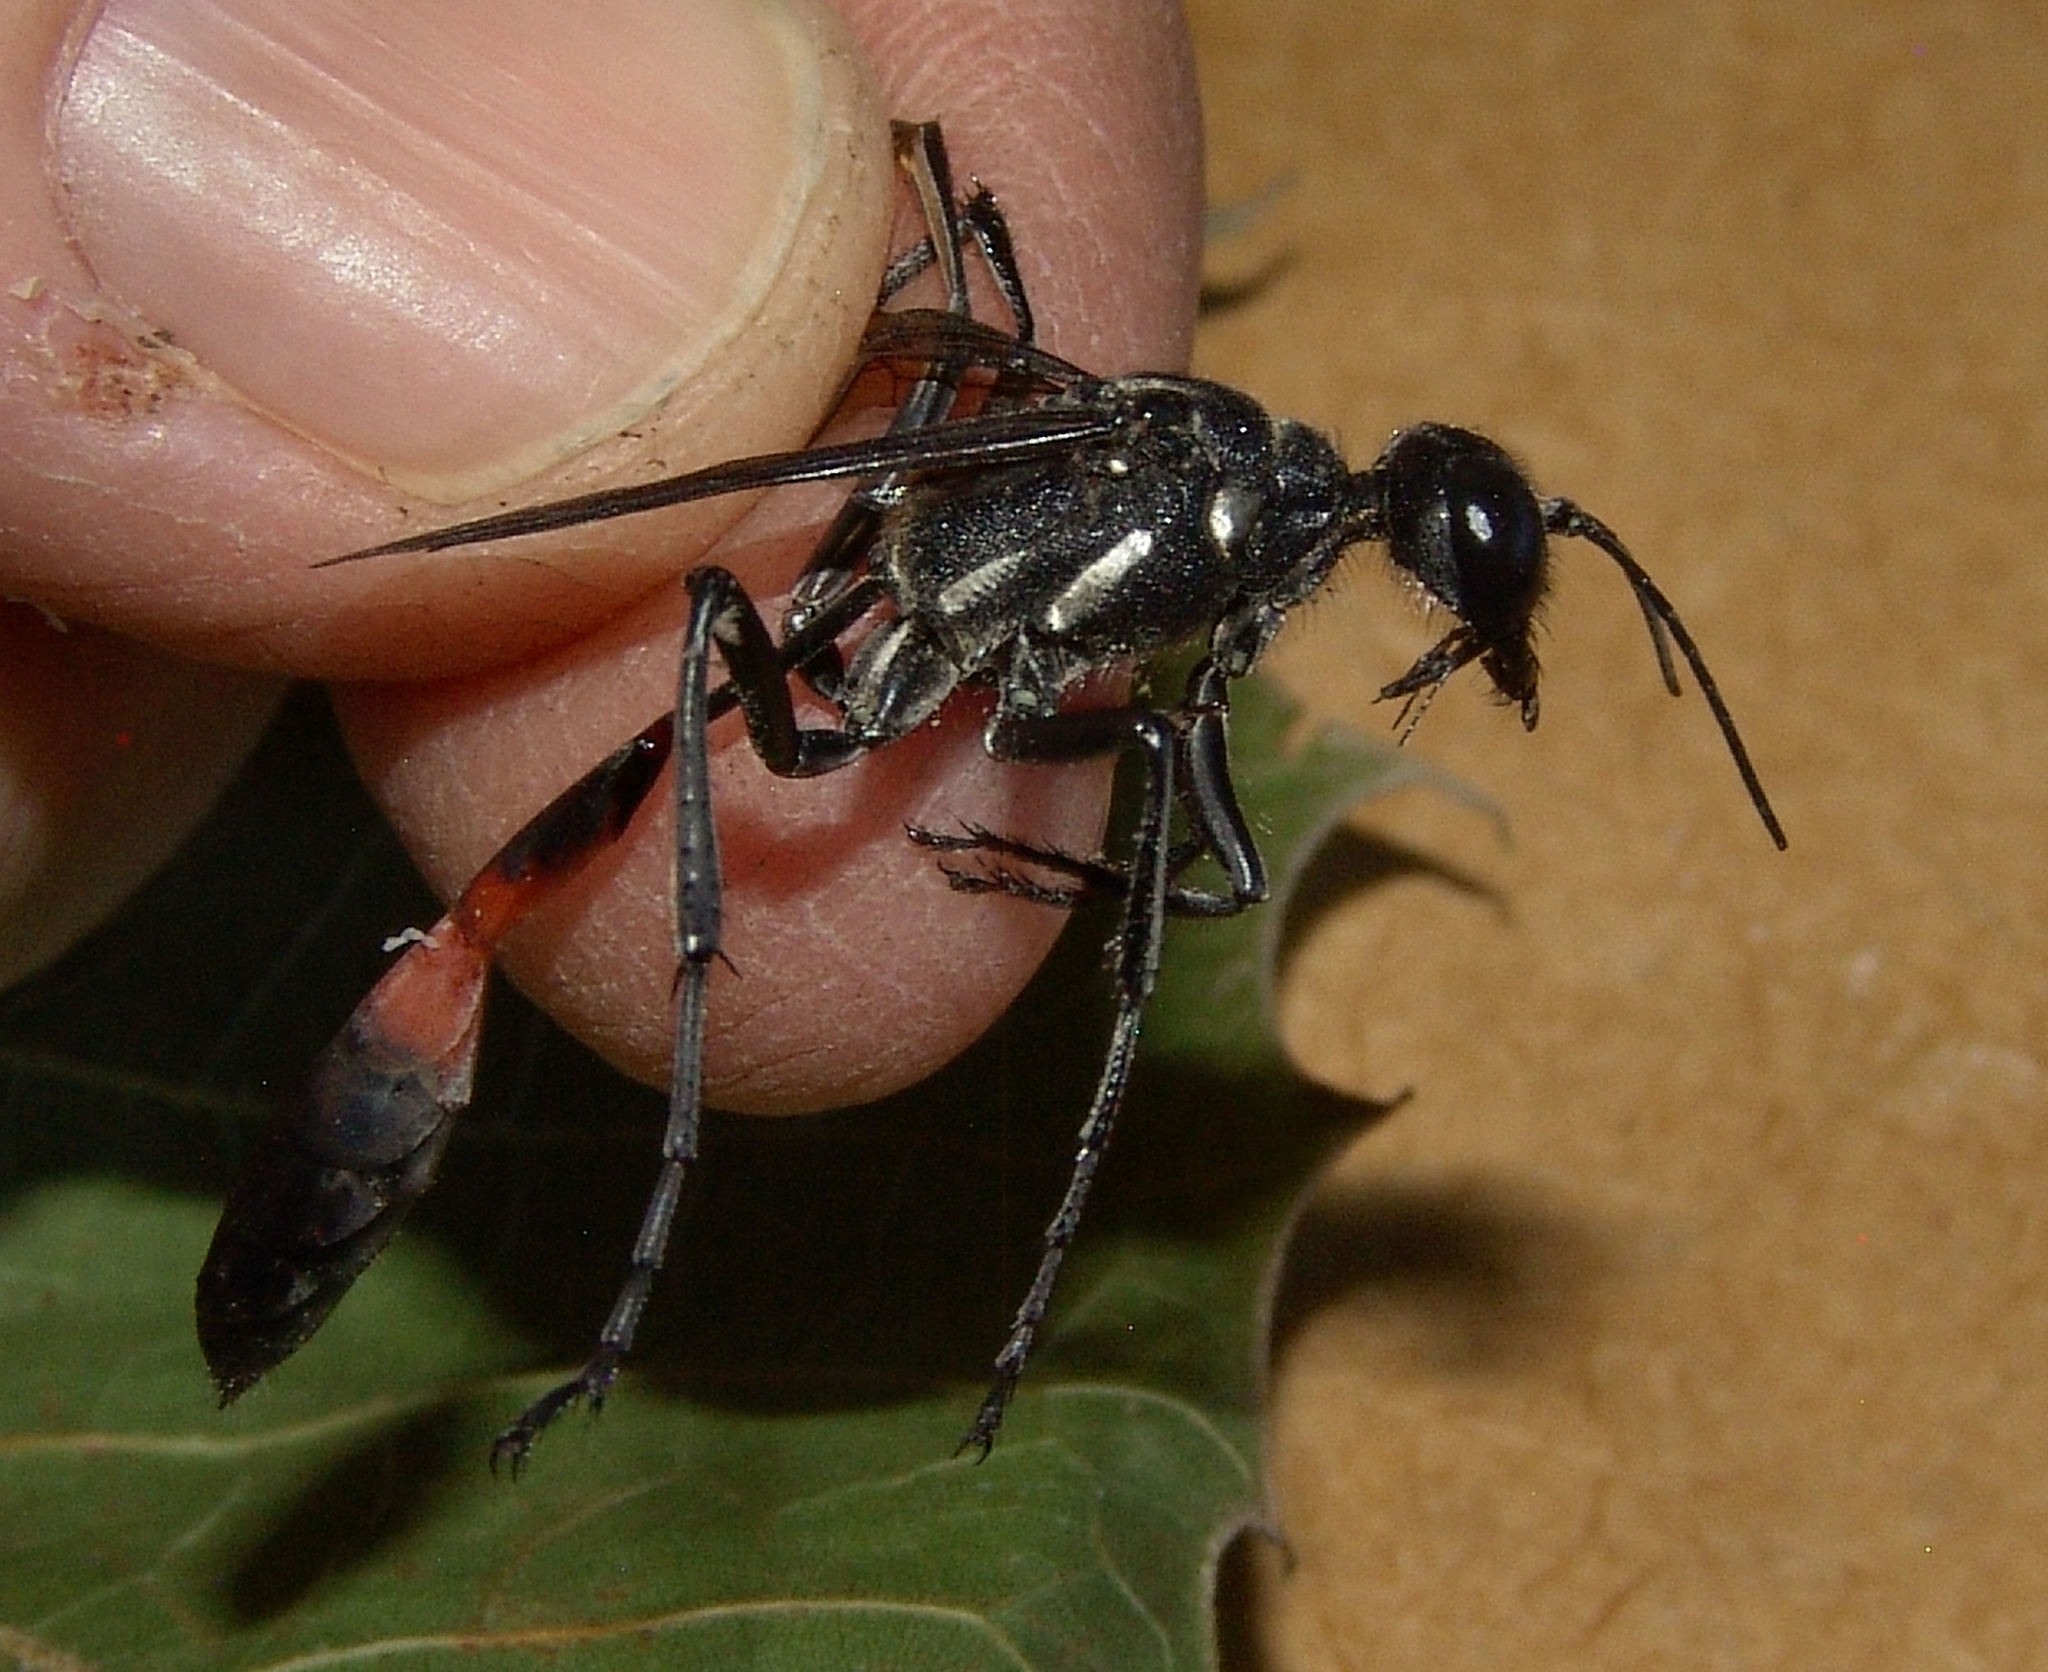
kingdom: Animalia
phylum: Arthropoda
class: Insecta
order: Hymenoptera
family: Sphecidae
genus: Ammophila
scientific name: Ammophila procera
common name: Common thread-waisted wasp
